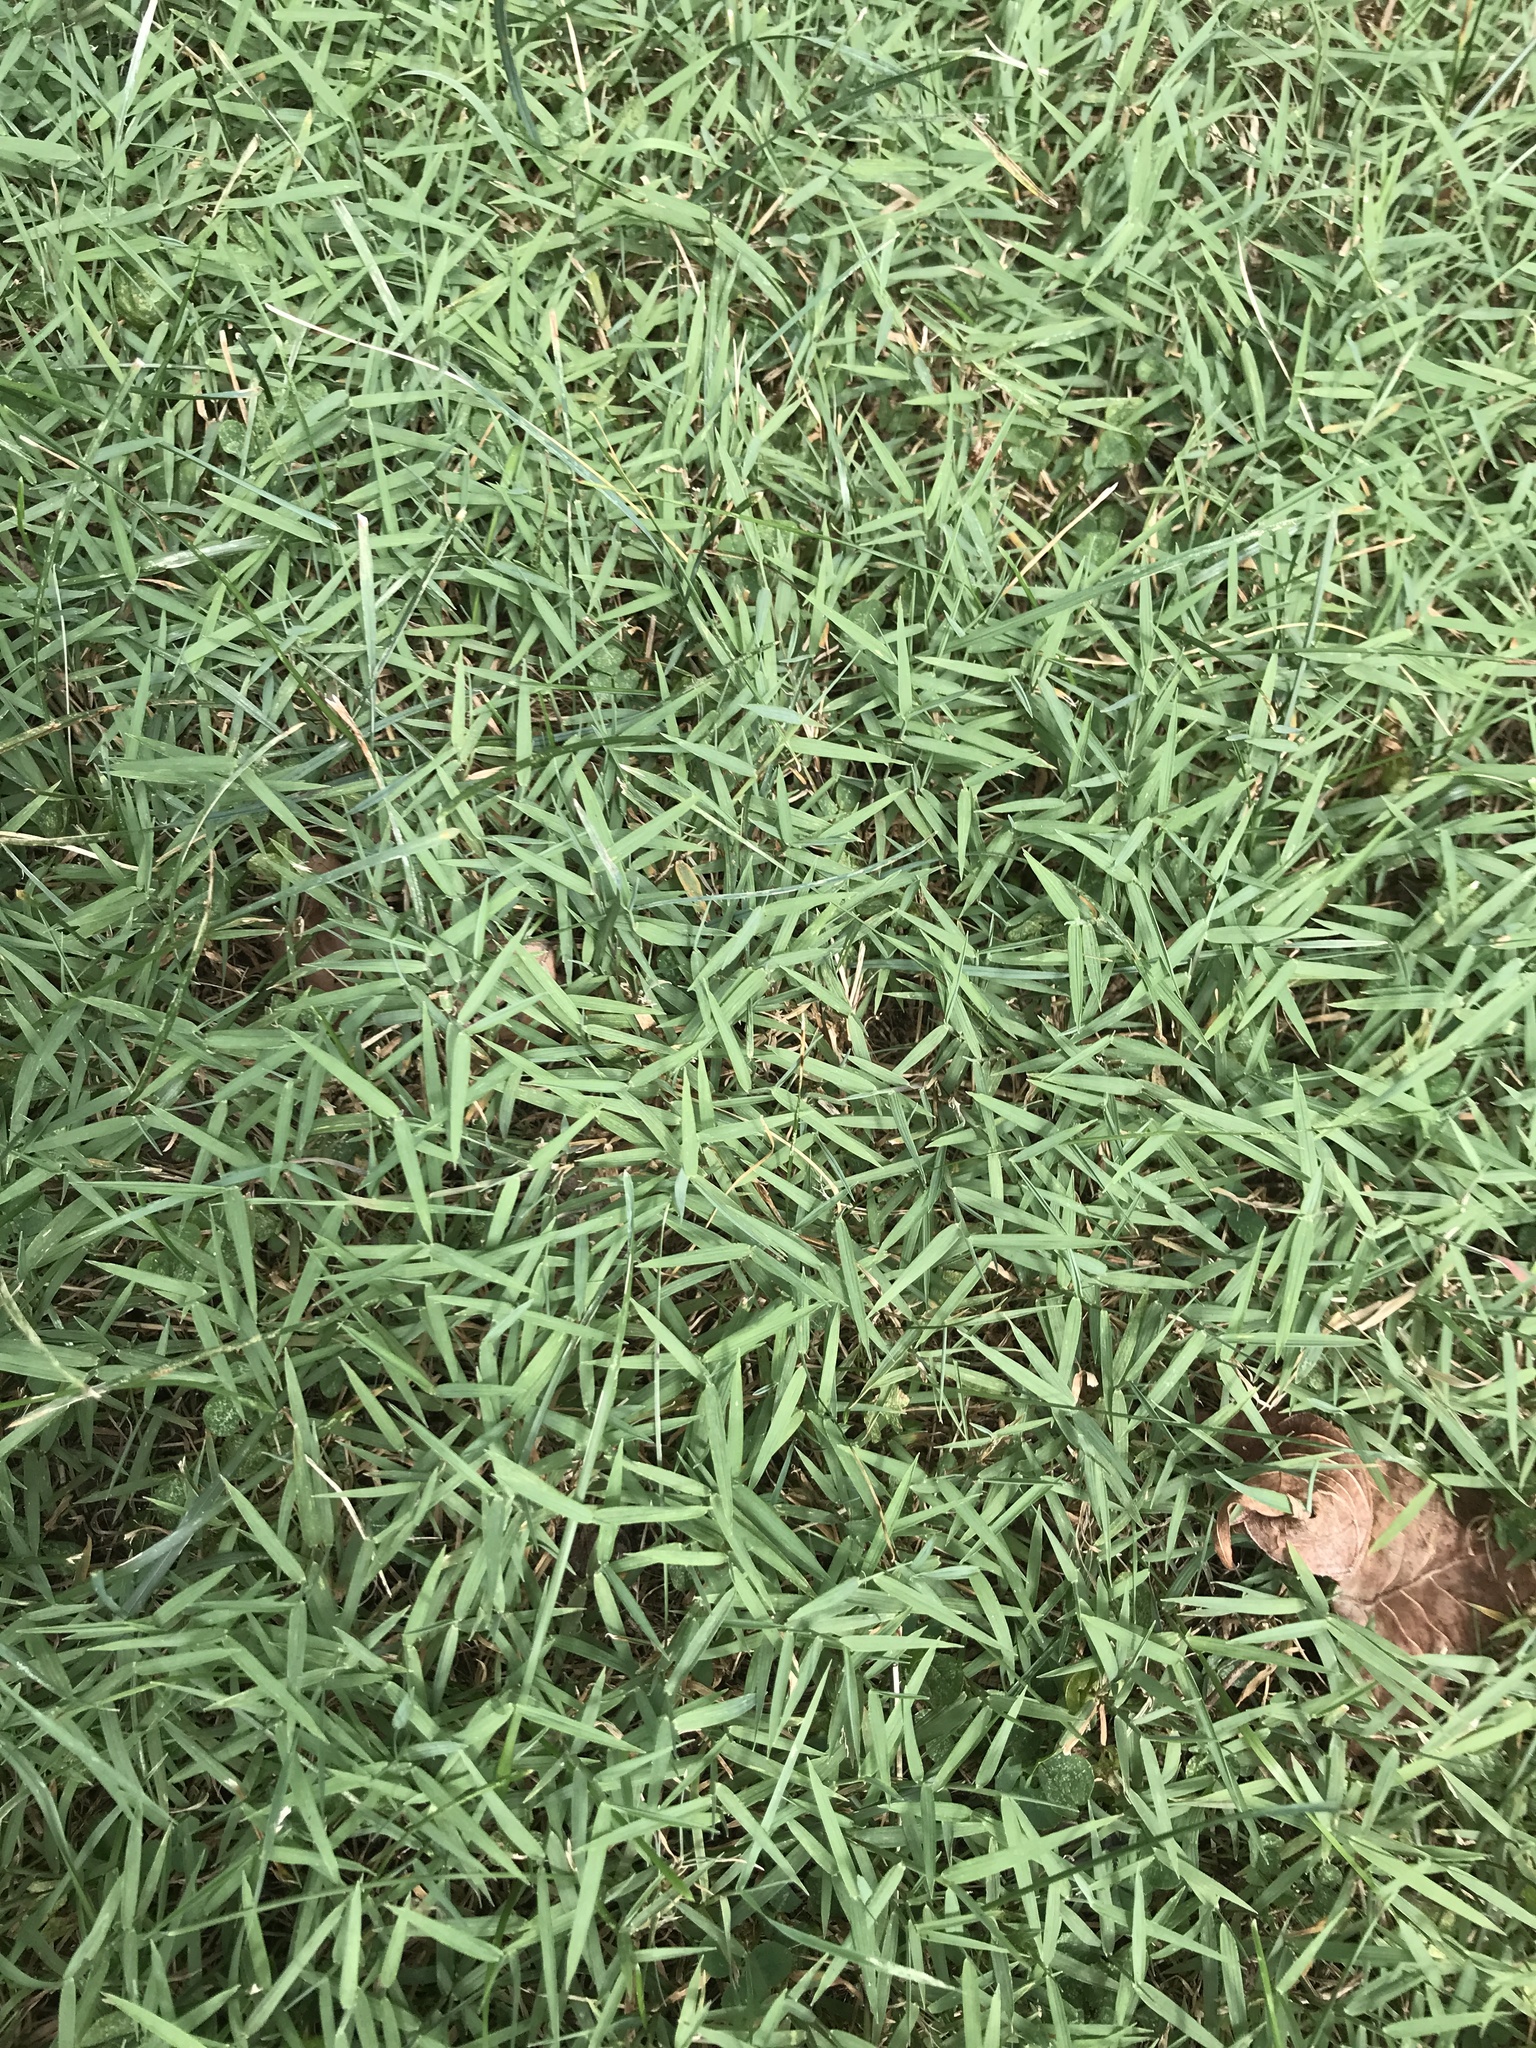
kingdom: Plantae
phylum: Tracheophyta
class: Liliopsida
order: Poales
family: Poaceae
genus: Muhlenbergia
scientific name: Muhlenbergia schreberi
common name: Nimblewill
